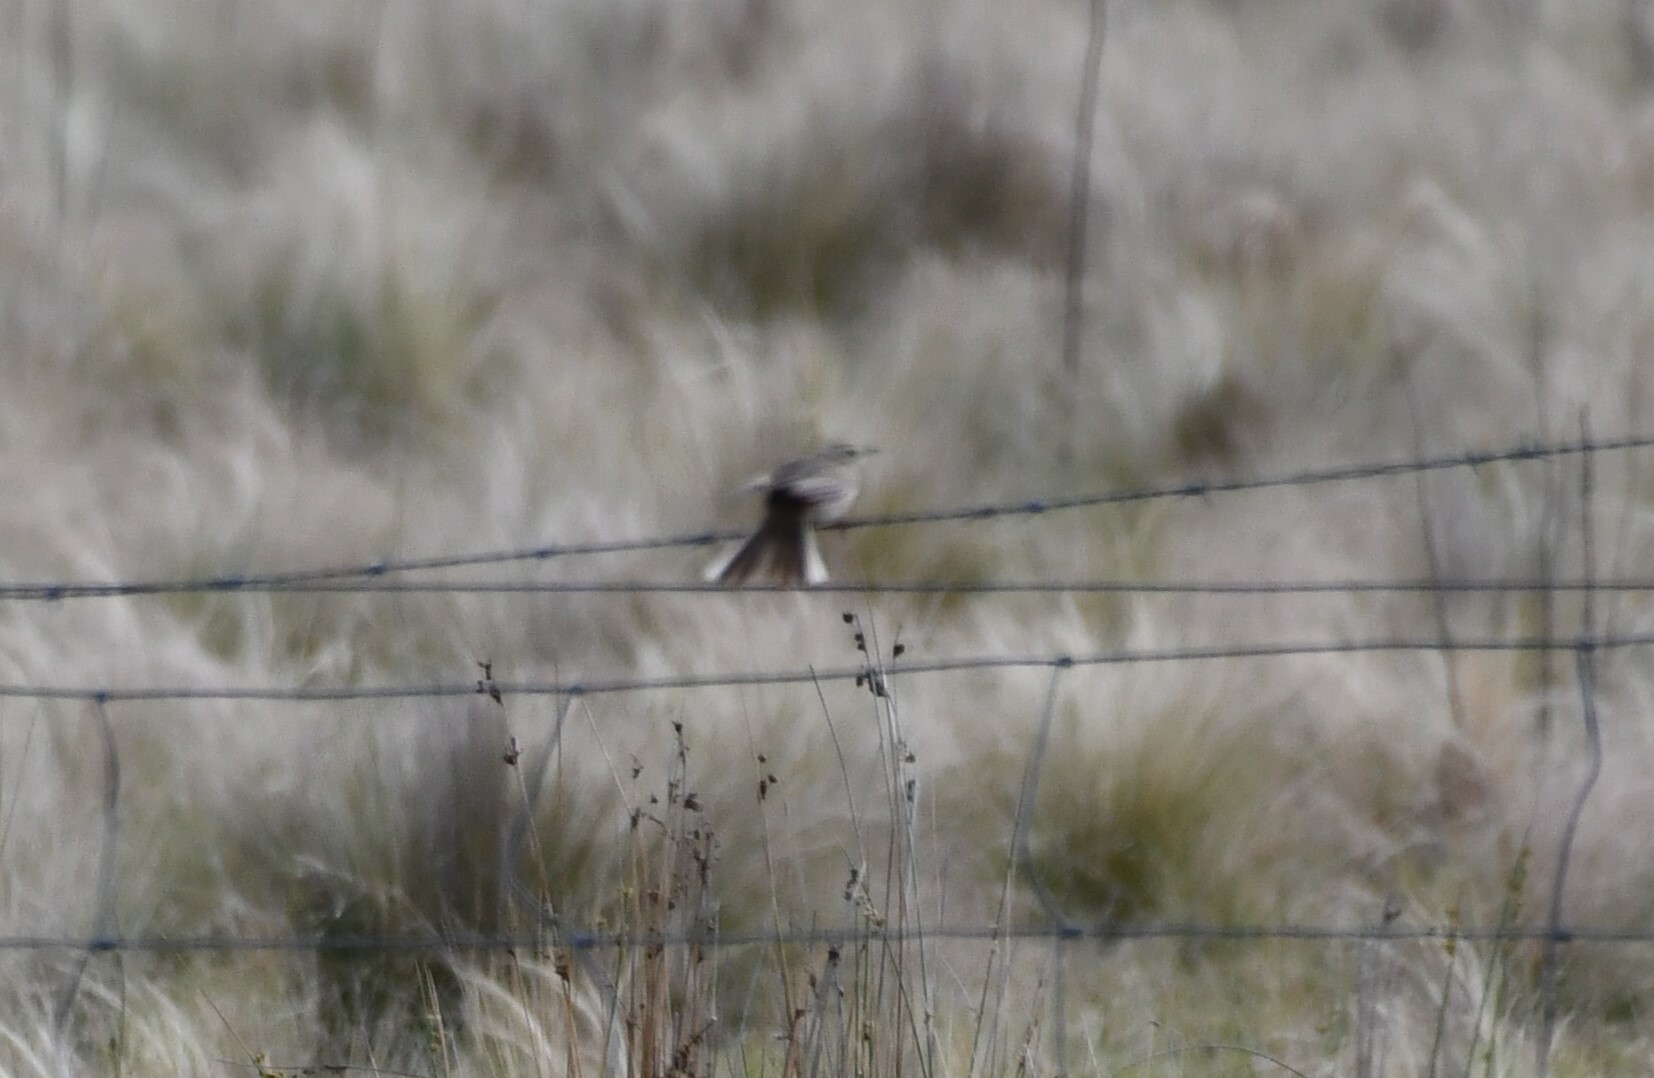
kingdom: Animalia
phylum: Chordata
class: Aves
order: Passeriformes
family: Motacillidae
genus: Anthus
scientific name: Anthus australis
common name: Australian pipit
